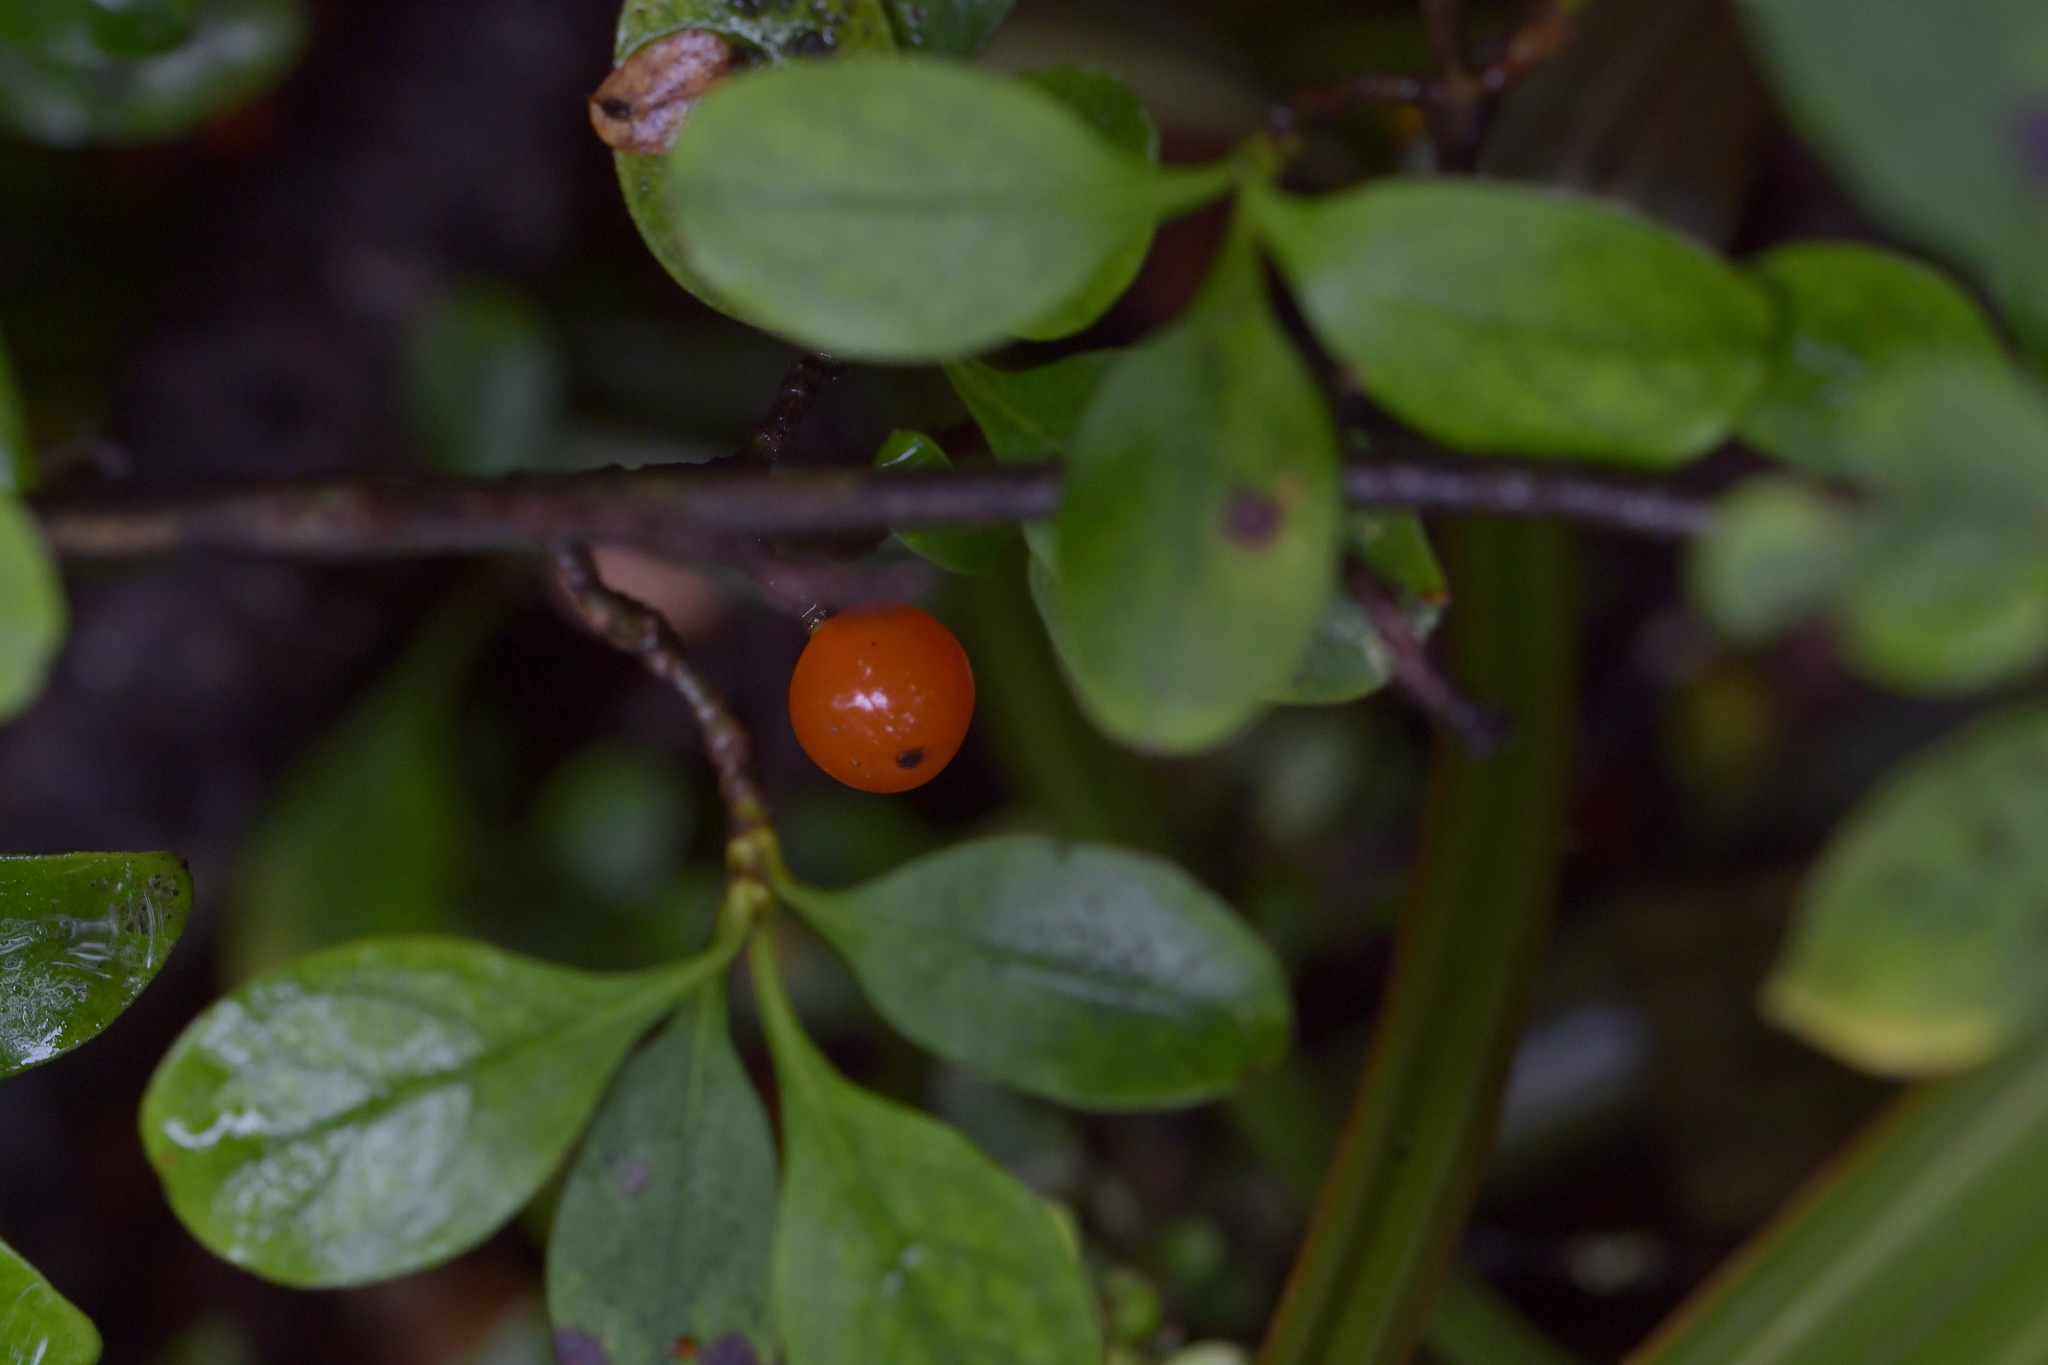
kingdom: Plantae
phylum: Tracheophyta
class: Magnoliopsida
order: Gentianales
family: Rubiaceae
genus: Coprosma
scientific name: Coprosma foetidissima
